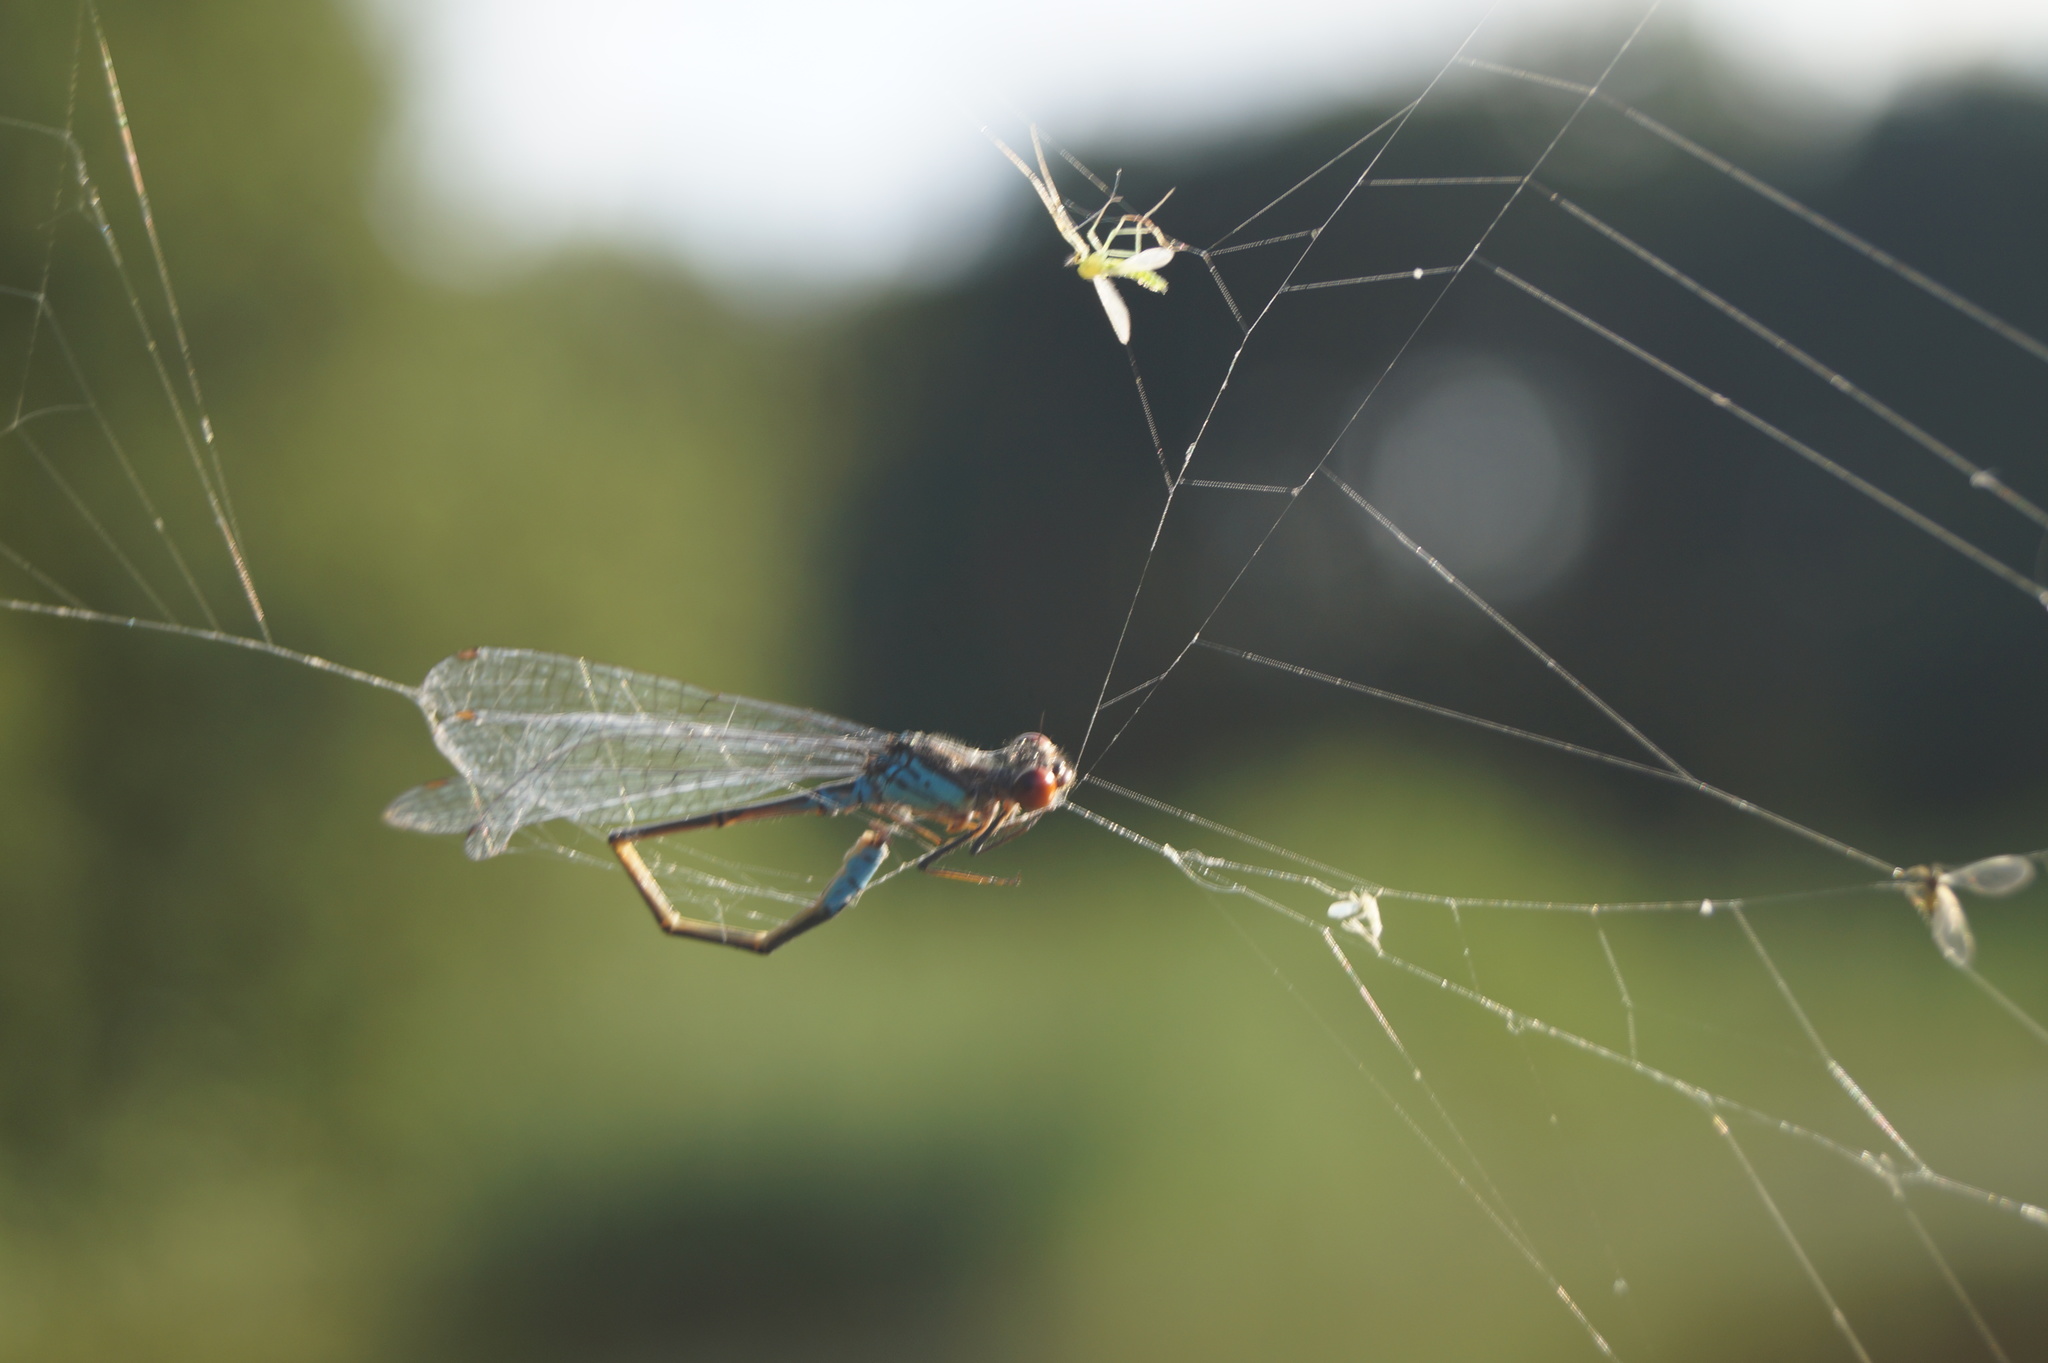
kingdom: Animalia
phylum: Arthropoda
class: Insecta
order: Odonata
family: Coenagrionidae
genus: Erythromma
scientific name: Erythromma viridulum
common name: Small red-eyed damselfly
